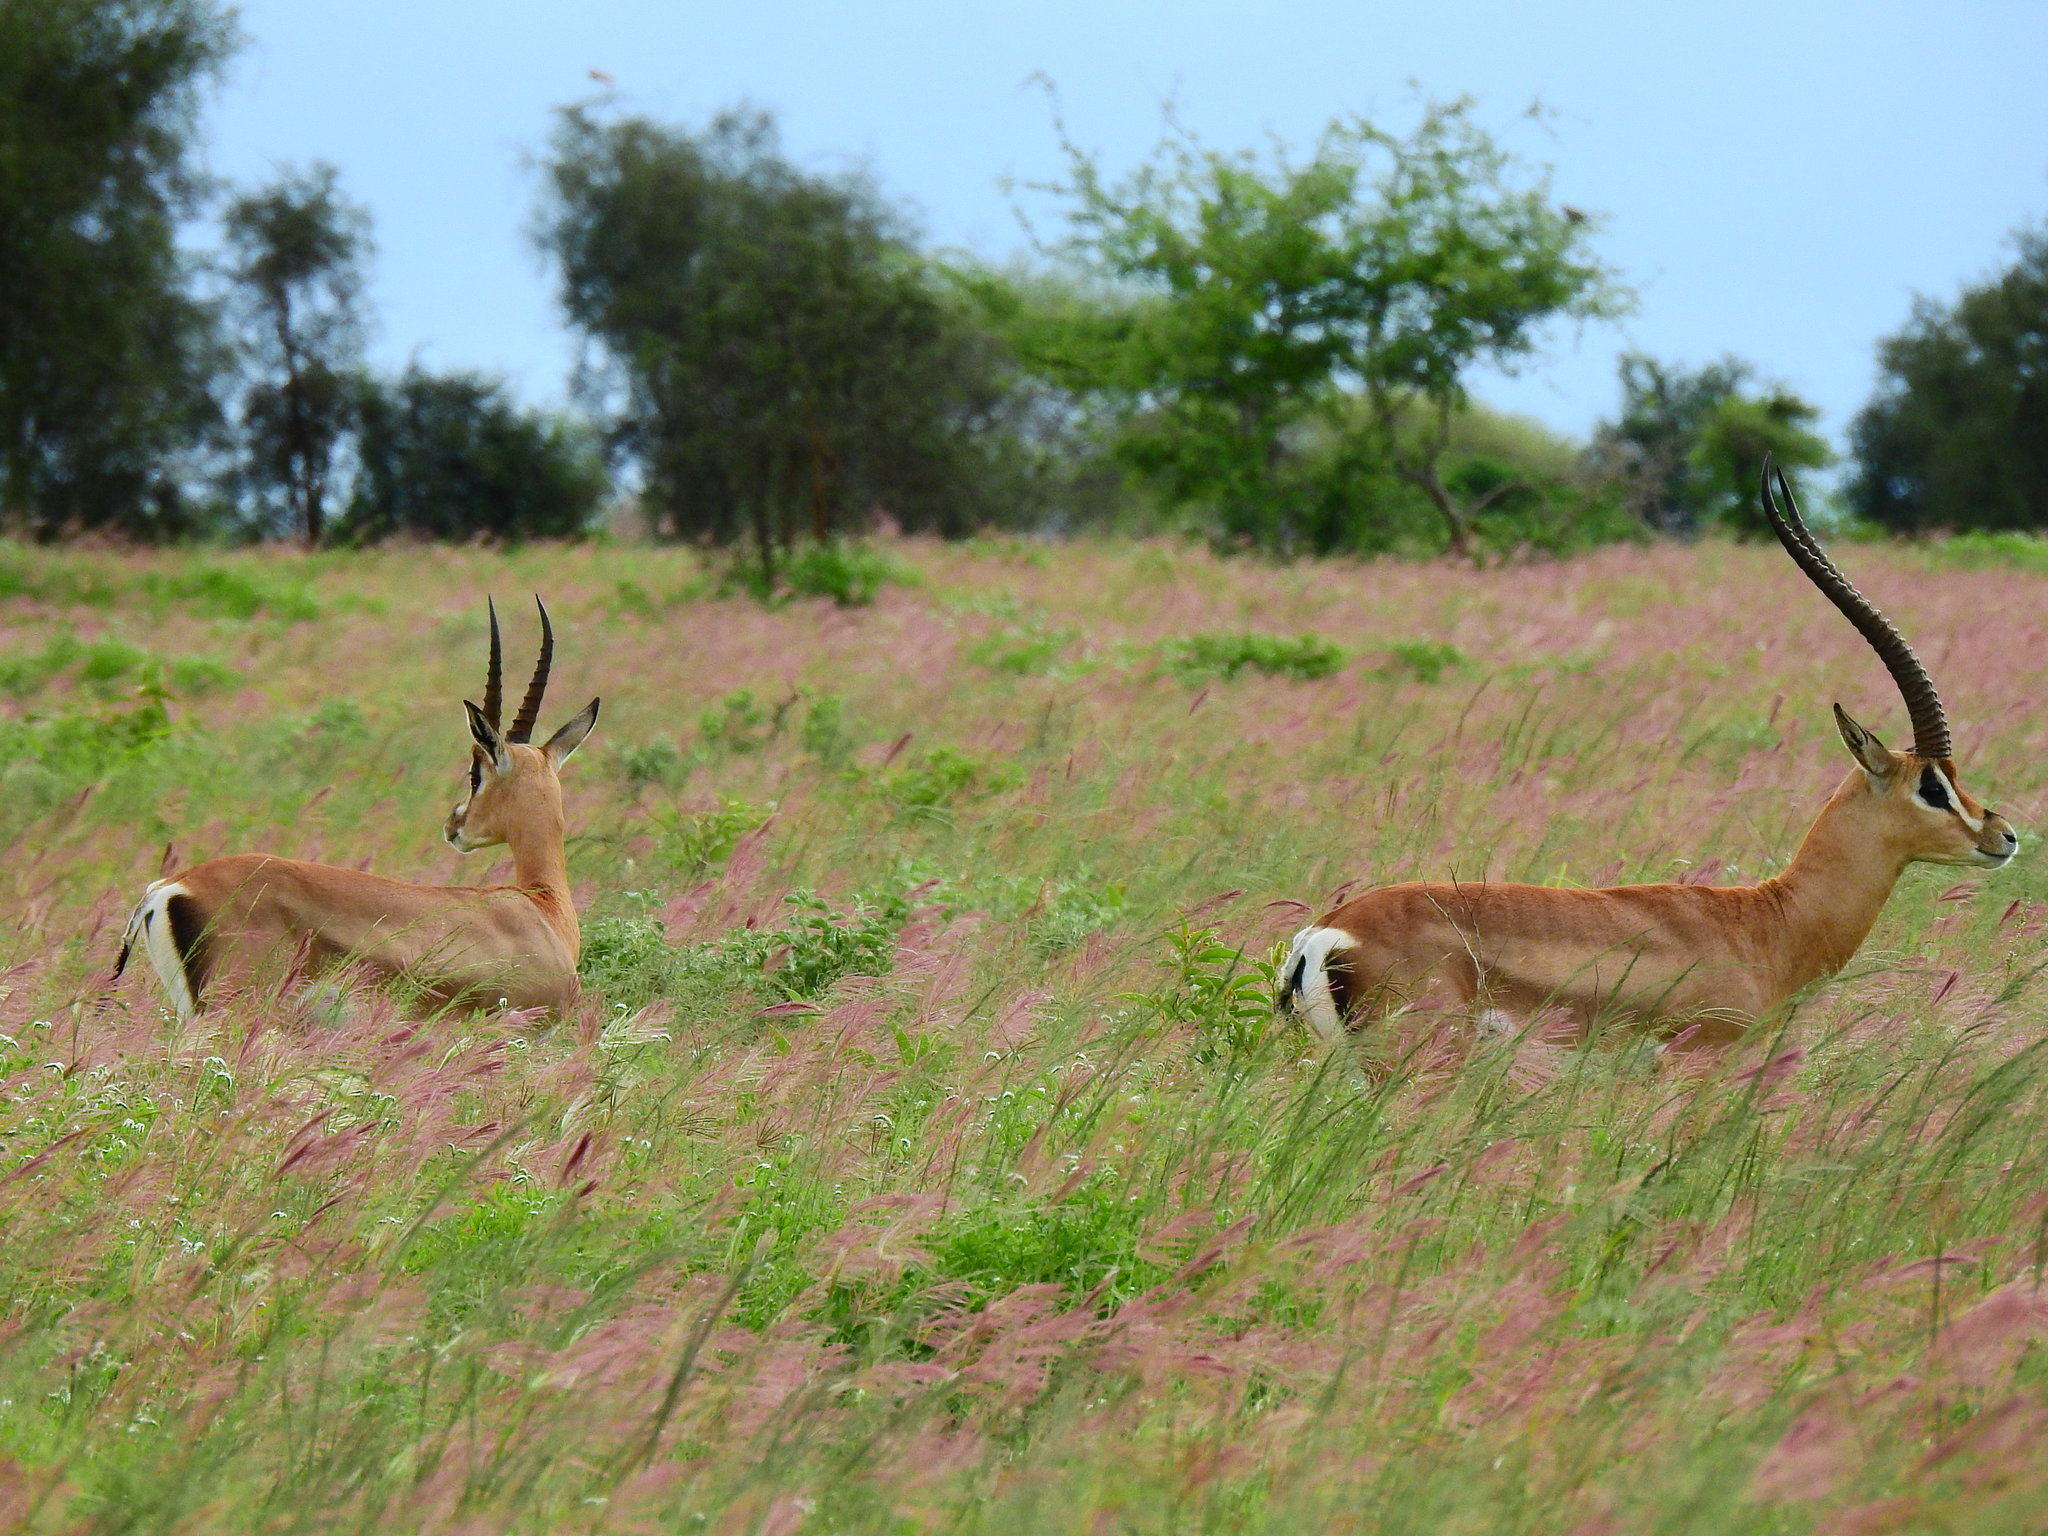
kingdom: Animalia
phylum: Chordata
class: Mammalia
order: Artiodactyla
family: Bovidae
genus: Nanger
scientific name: Nanger granti
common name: Grant's gazelle
